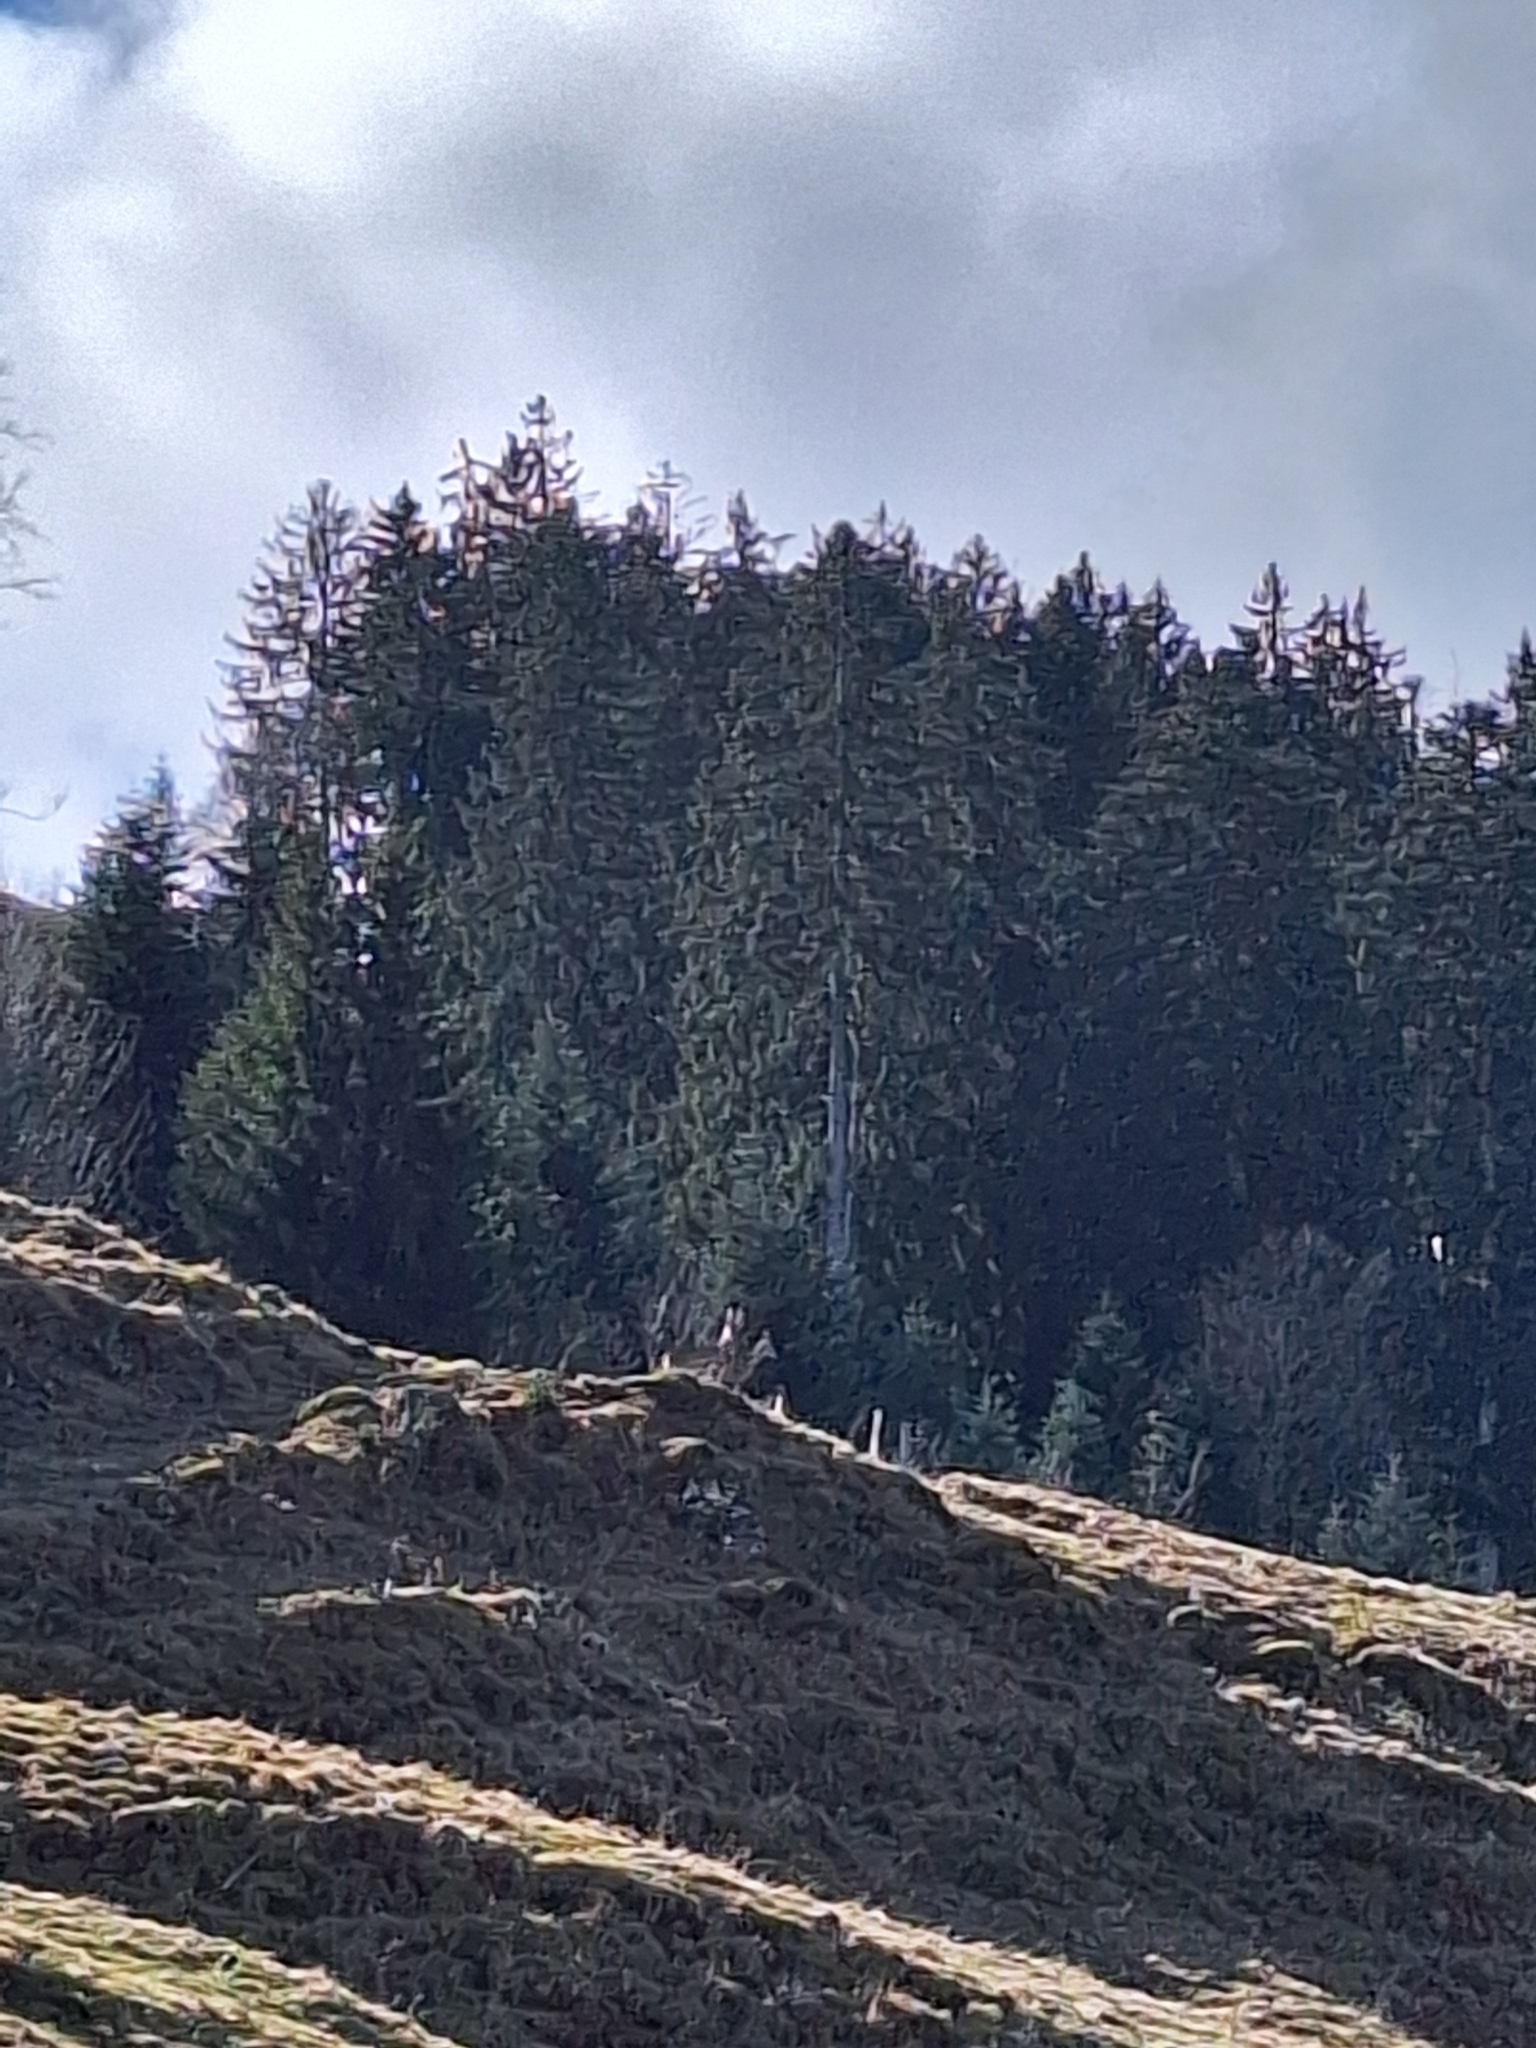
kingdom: Animalia
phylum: Chordata
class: Mammalia
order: Artiodactyla
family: Cervidae
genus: Capreolus
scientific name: Capreolus capreolus
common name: Western roe deer
